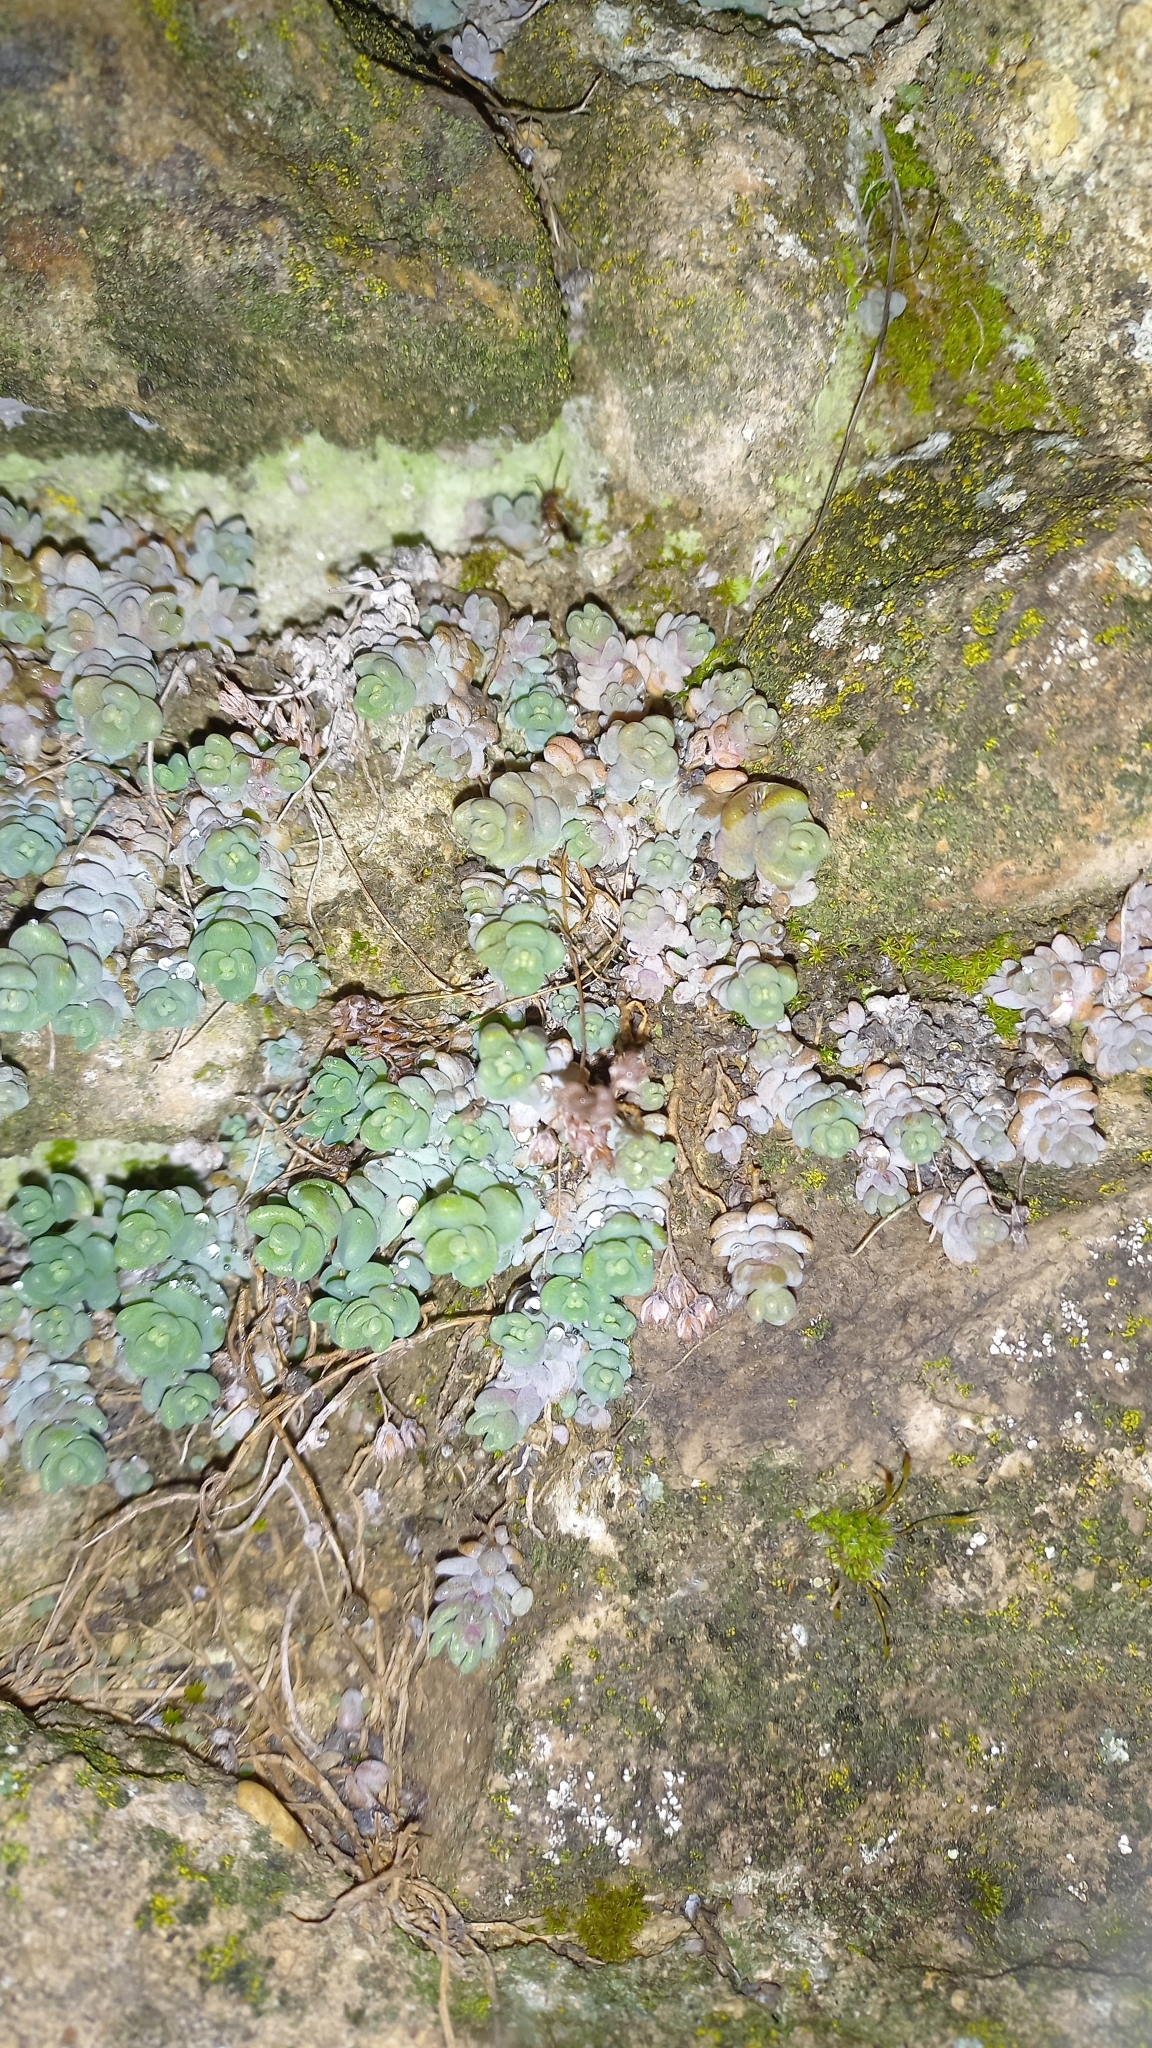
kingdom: Plantae
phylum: Tracheophyta
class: Magnoliopsida
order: Saxifragales
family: Crassulaceae
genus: Sedum
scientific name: Sedum dasyphyllum
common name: Thick-leaf stonecrop
